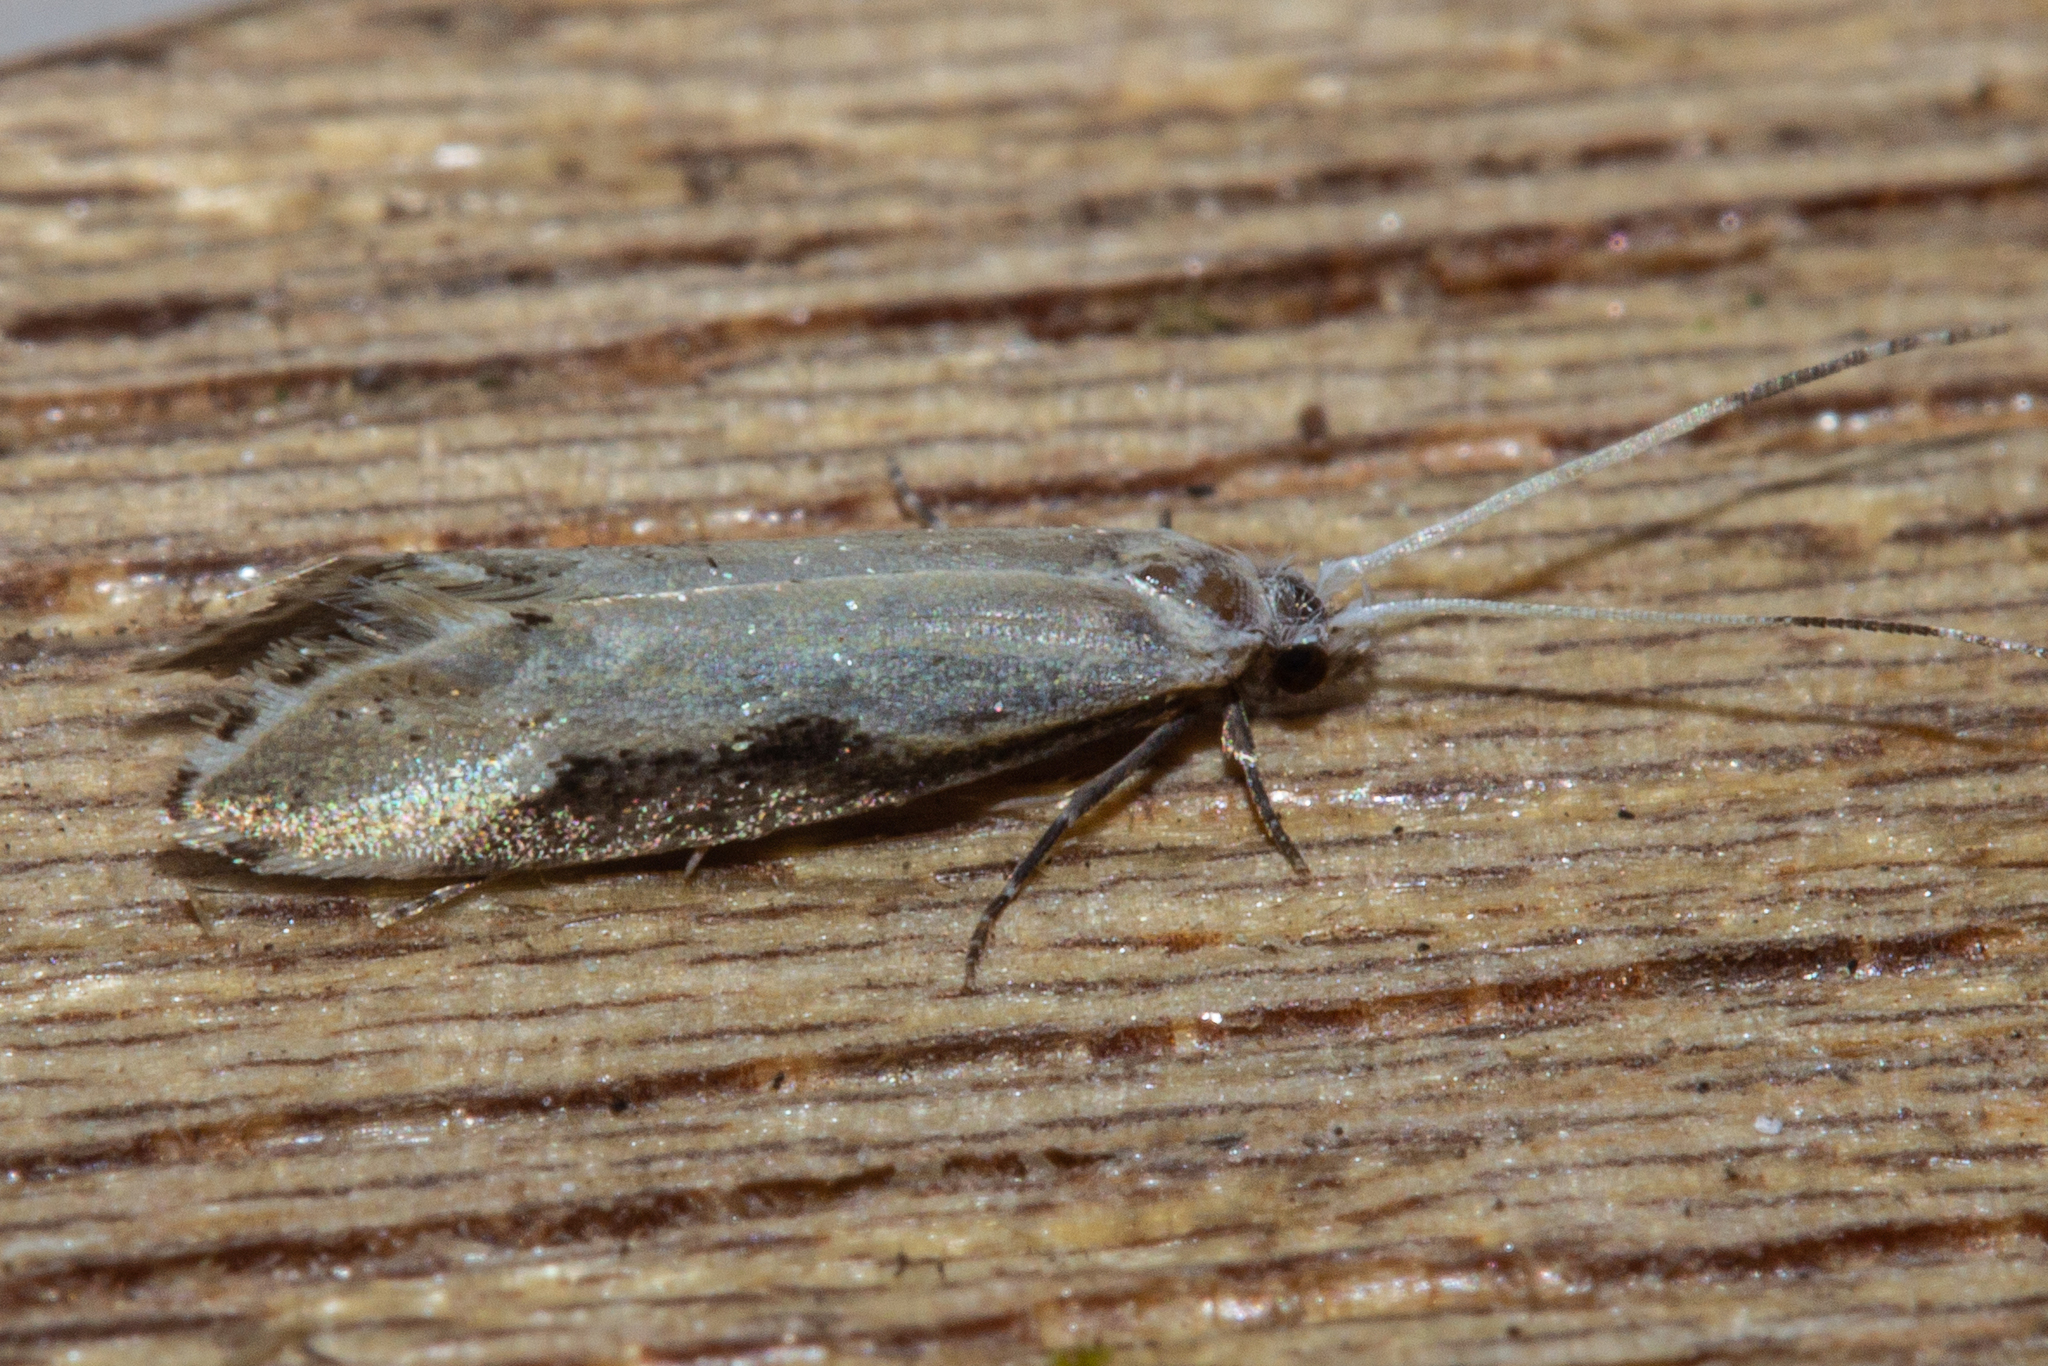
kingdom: Animalia
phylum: Arthropoda
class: Insecta
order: Lepidoptera
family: Tineidae
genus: Sagephora
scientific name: Sagephora phortegella
